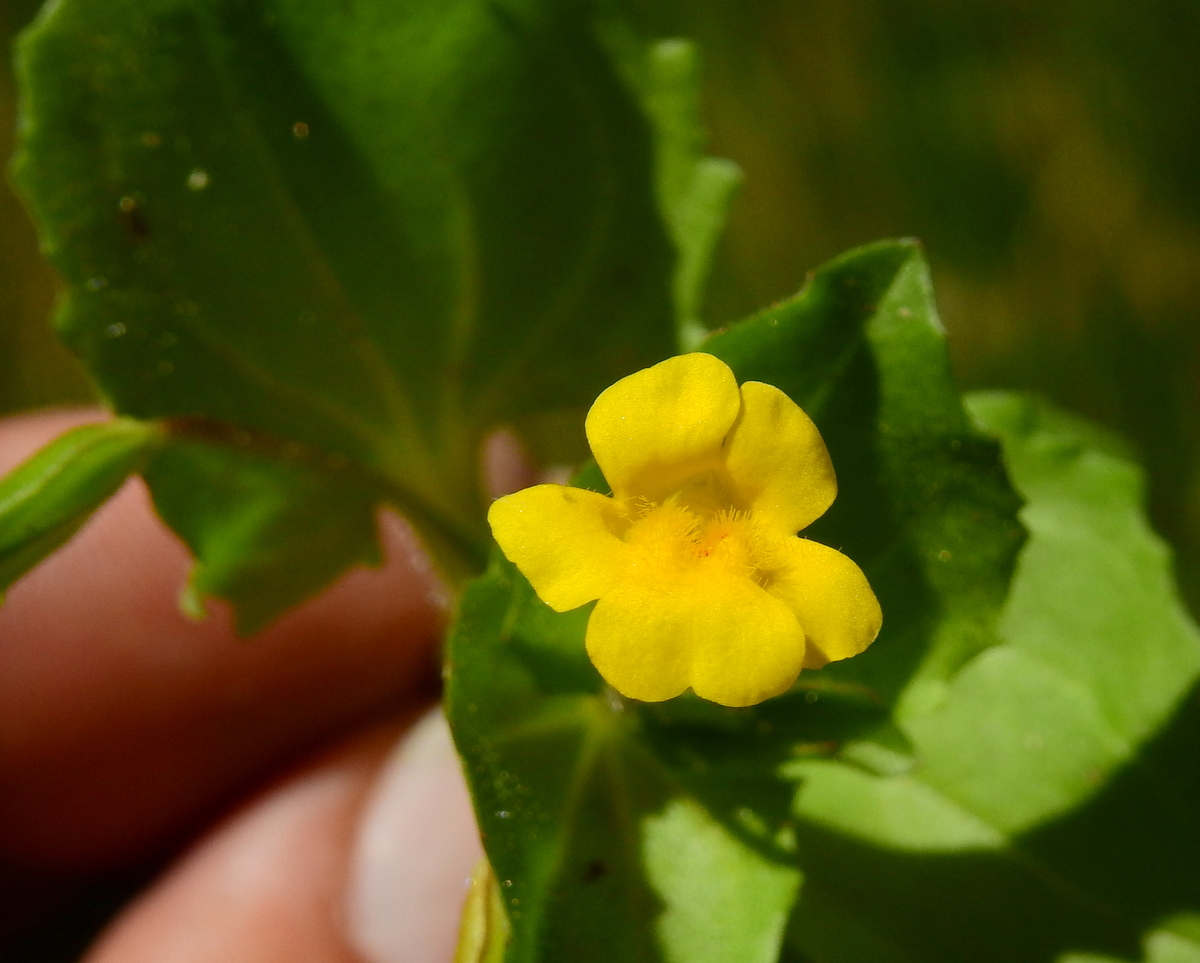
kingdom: Plantae
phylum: Tracheophyta
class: Magnoliopsida
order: Lamiales
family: Phrymaceae
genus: Erythranthe
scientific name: Erythranthe glabrata
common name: Round-leaved monkeyflower
